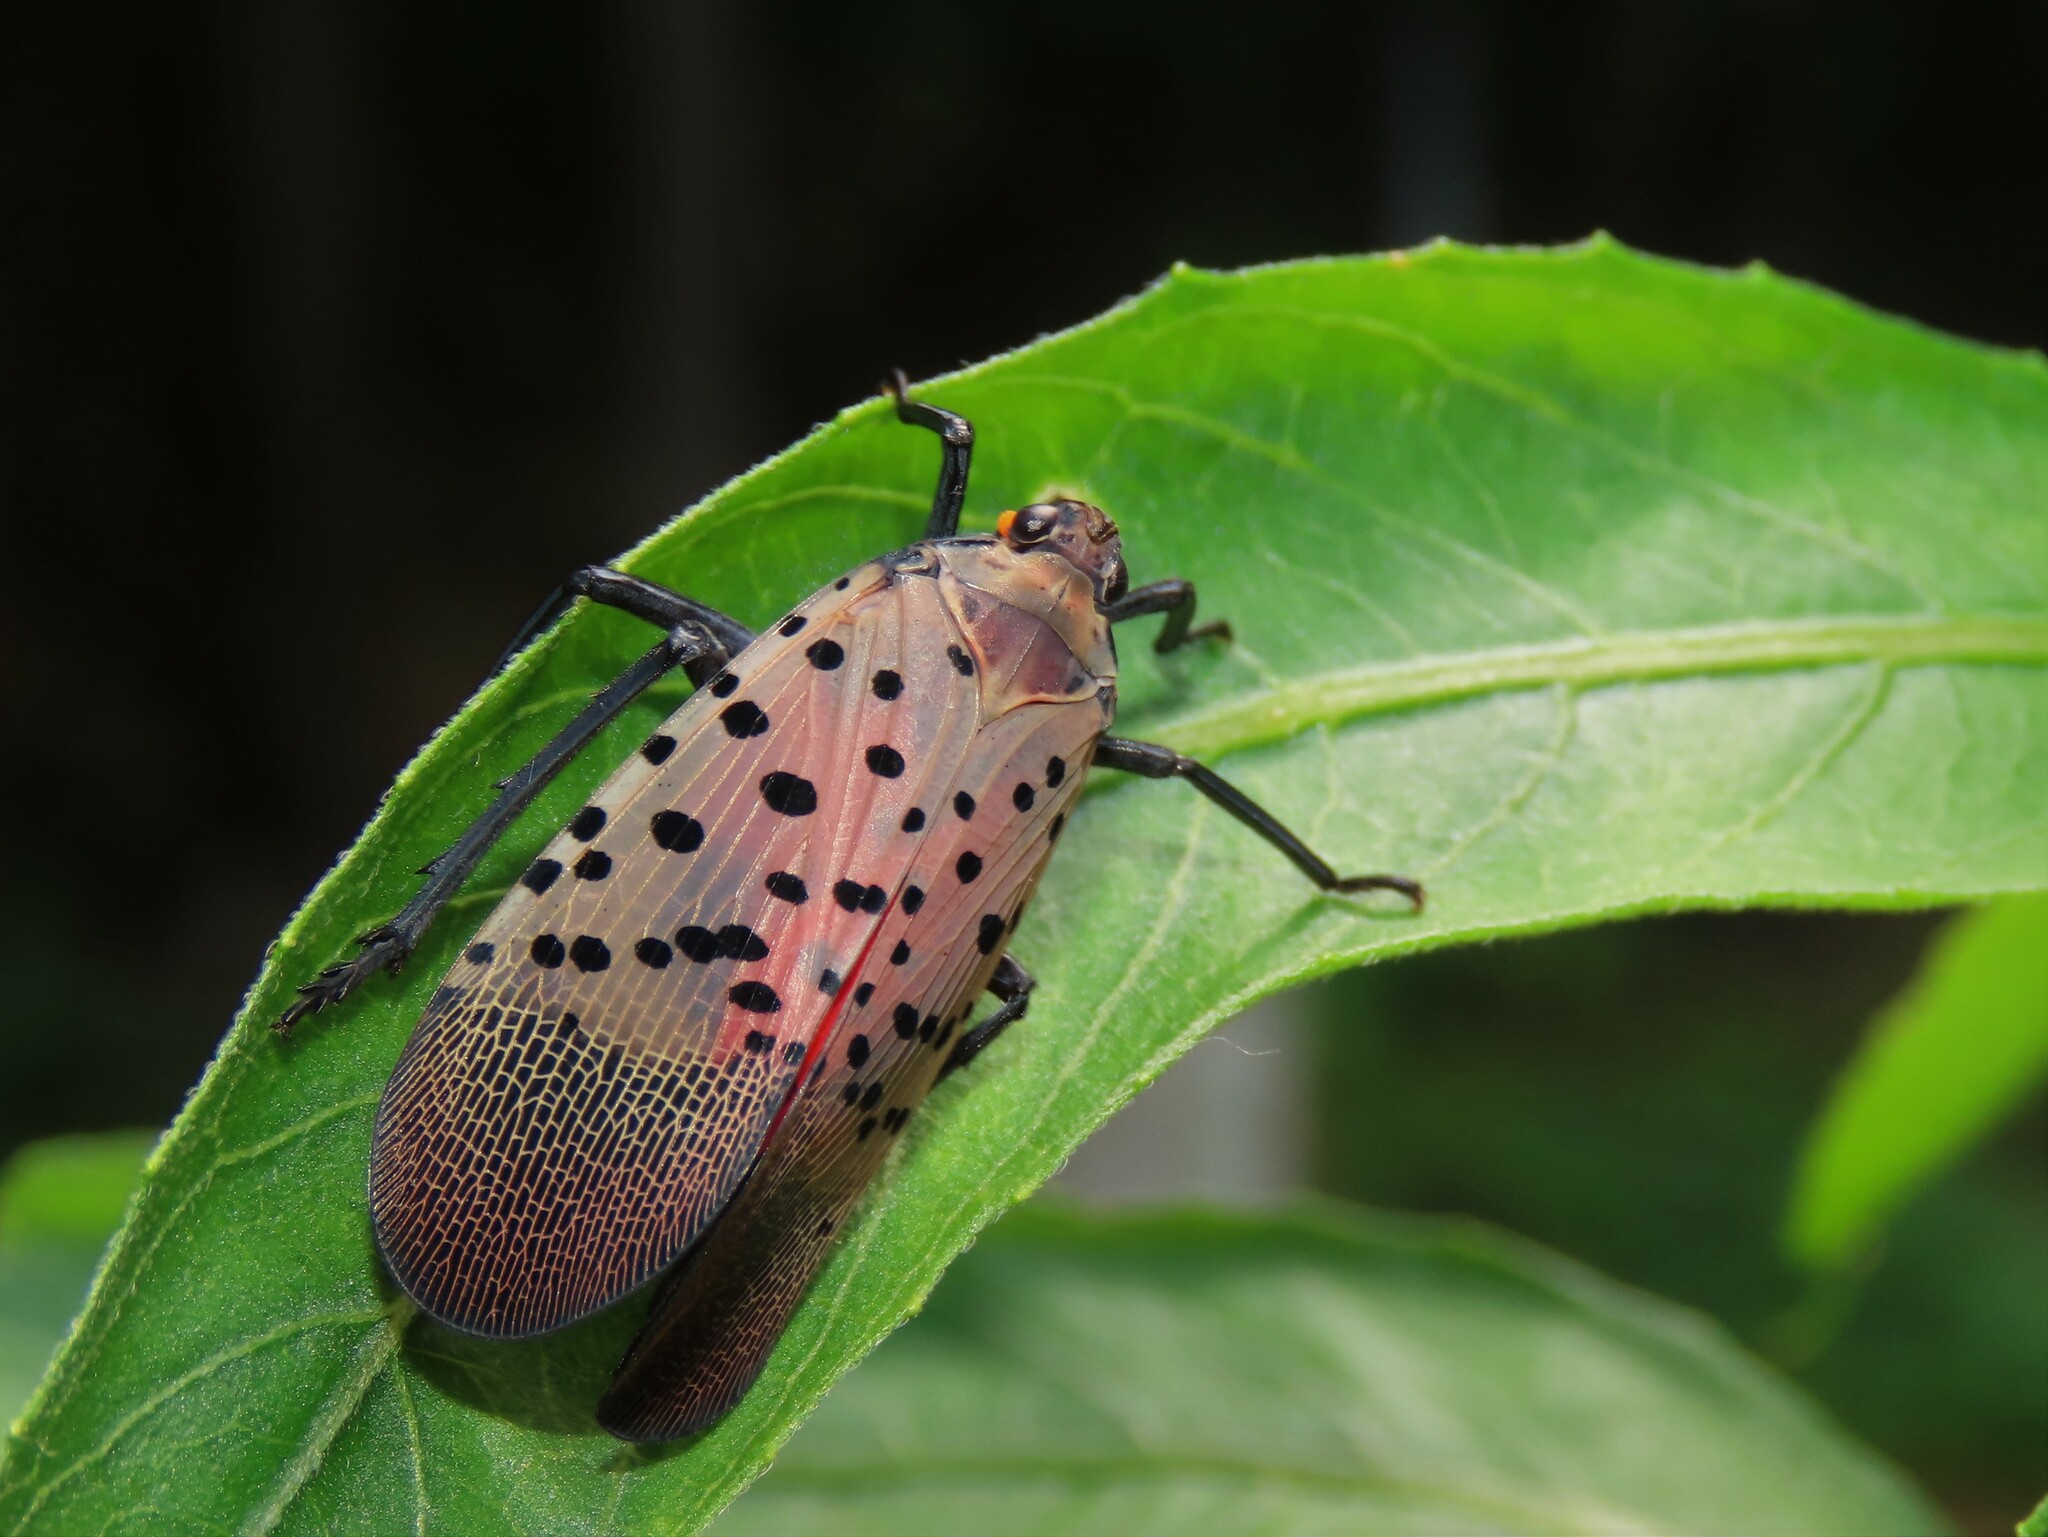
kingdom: Animalia
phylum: Arthropoda
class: Insecta
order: Hemiptera
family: Fulgoridae
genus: Lycorma
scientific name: Lycorma delicatula
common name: Spotted lanternfly
